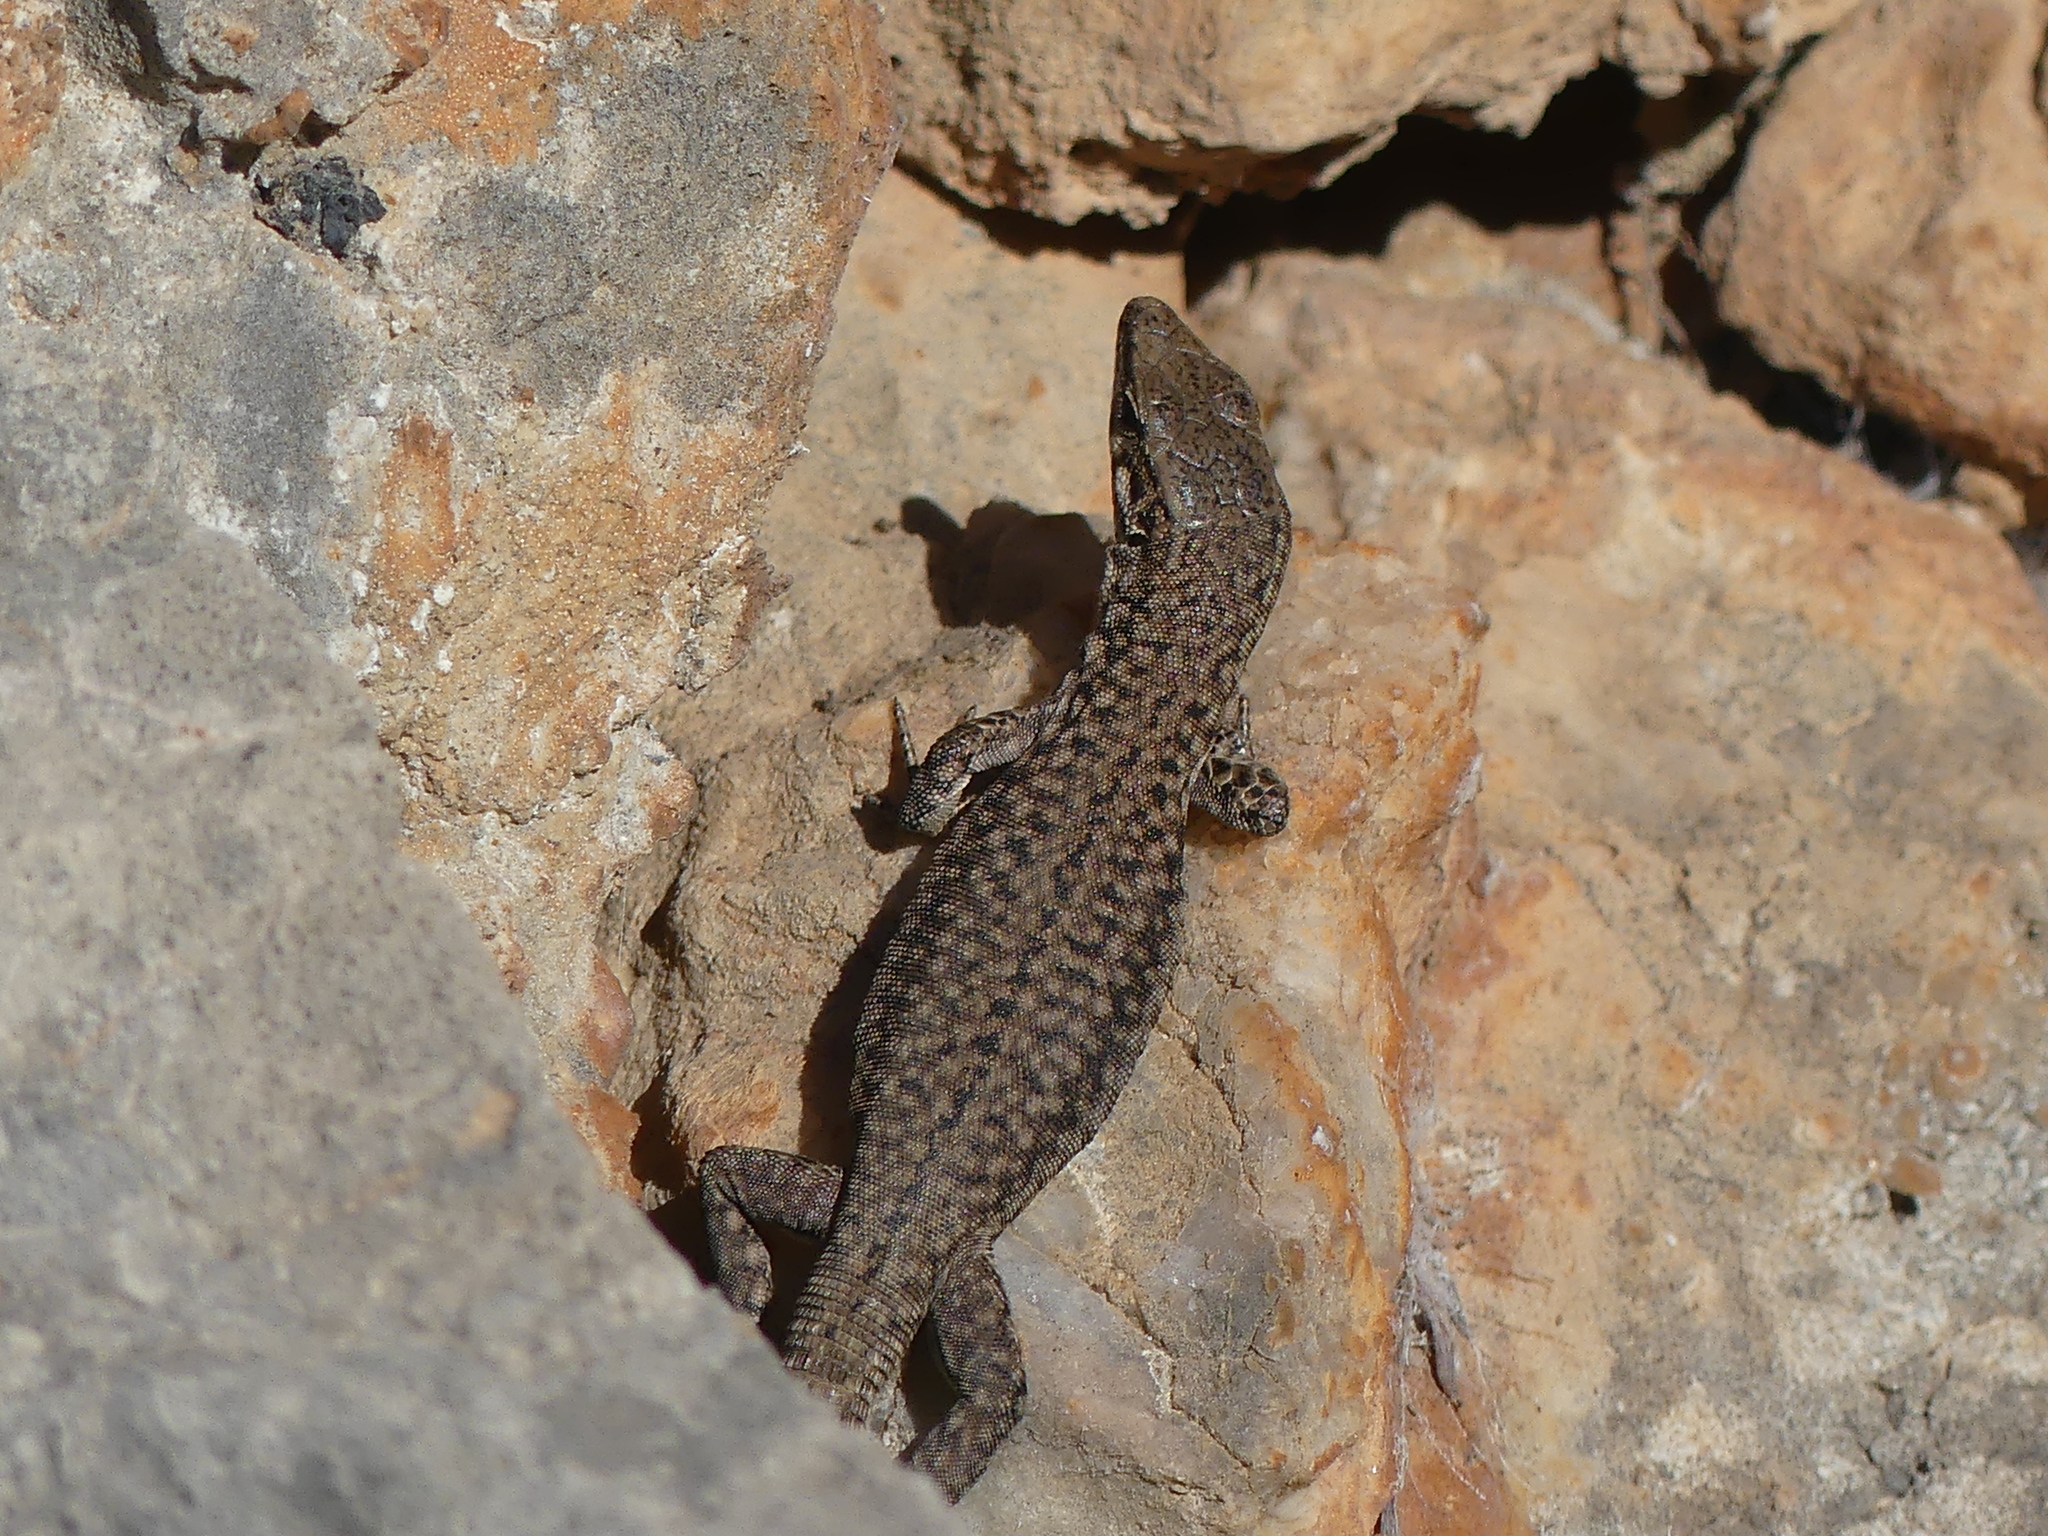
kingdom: Animalia
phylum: Chordata
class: Squamata
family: Lacertidae
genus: Podarcis
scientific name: Podarcis liolepis
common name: Catalonian wall lizard
